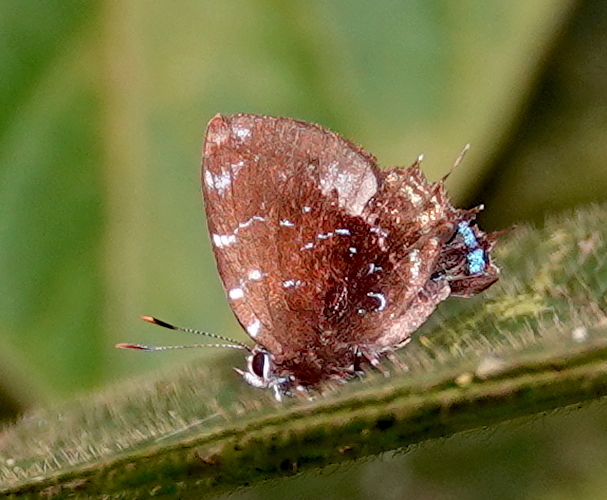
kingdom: Animalia
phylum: Arthropoda
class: Insecta
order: Lepidoptera
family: Lycaenidae
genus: Thecla
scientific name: Thecla thales
